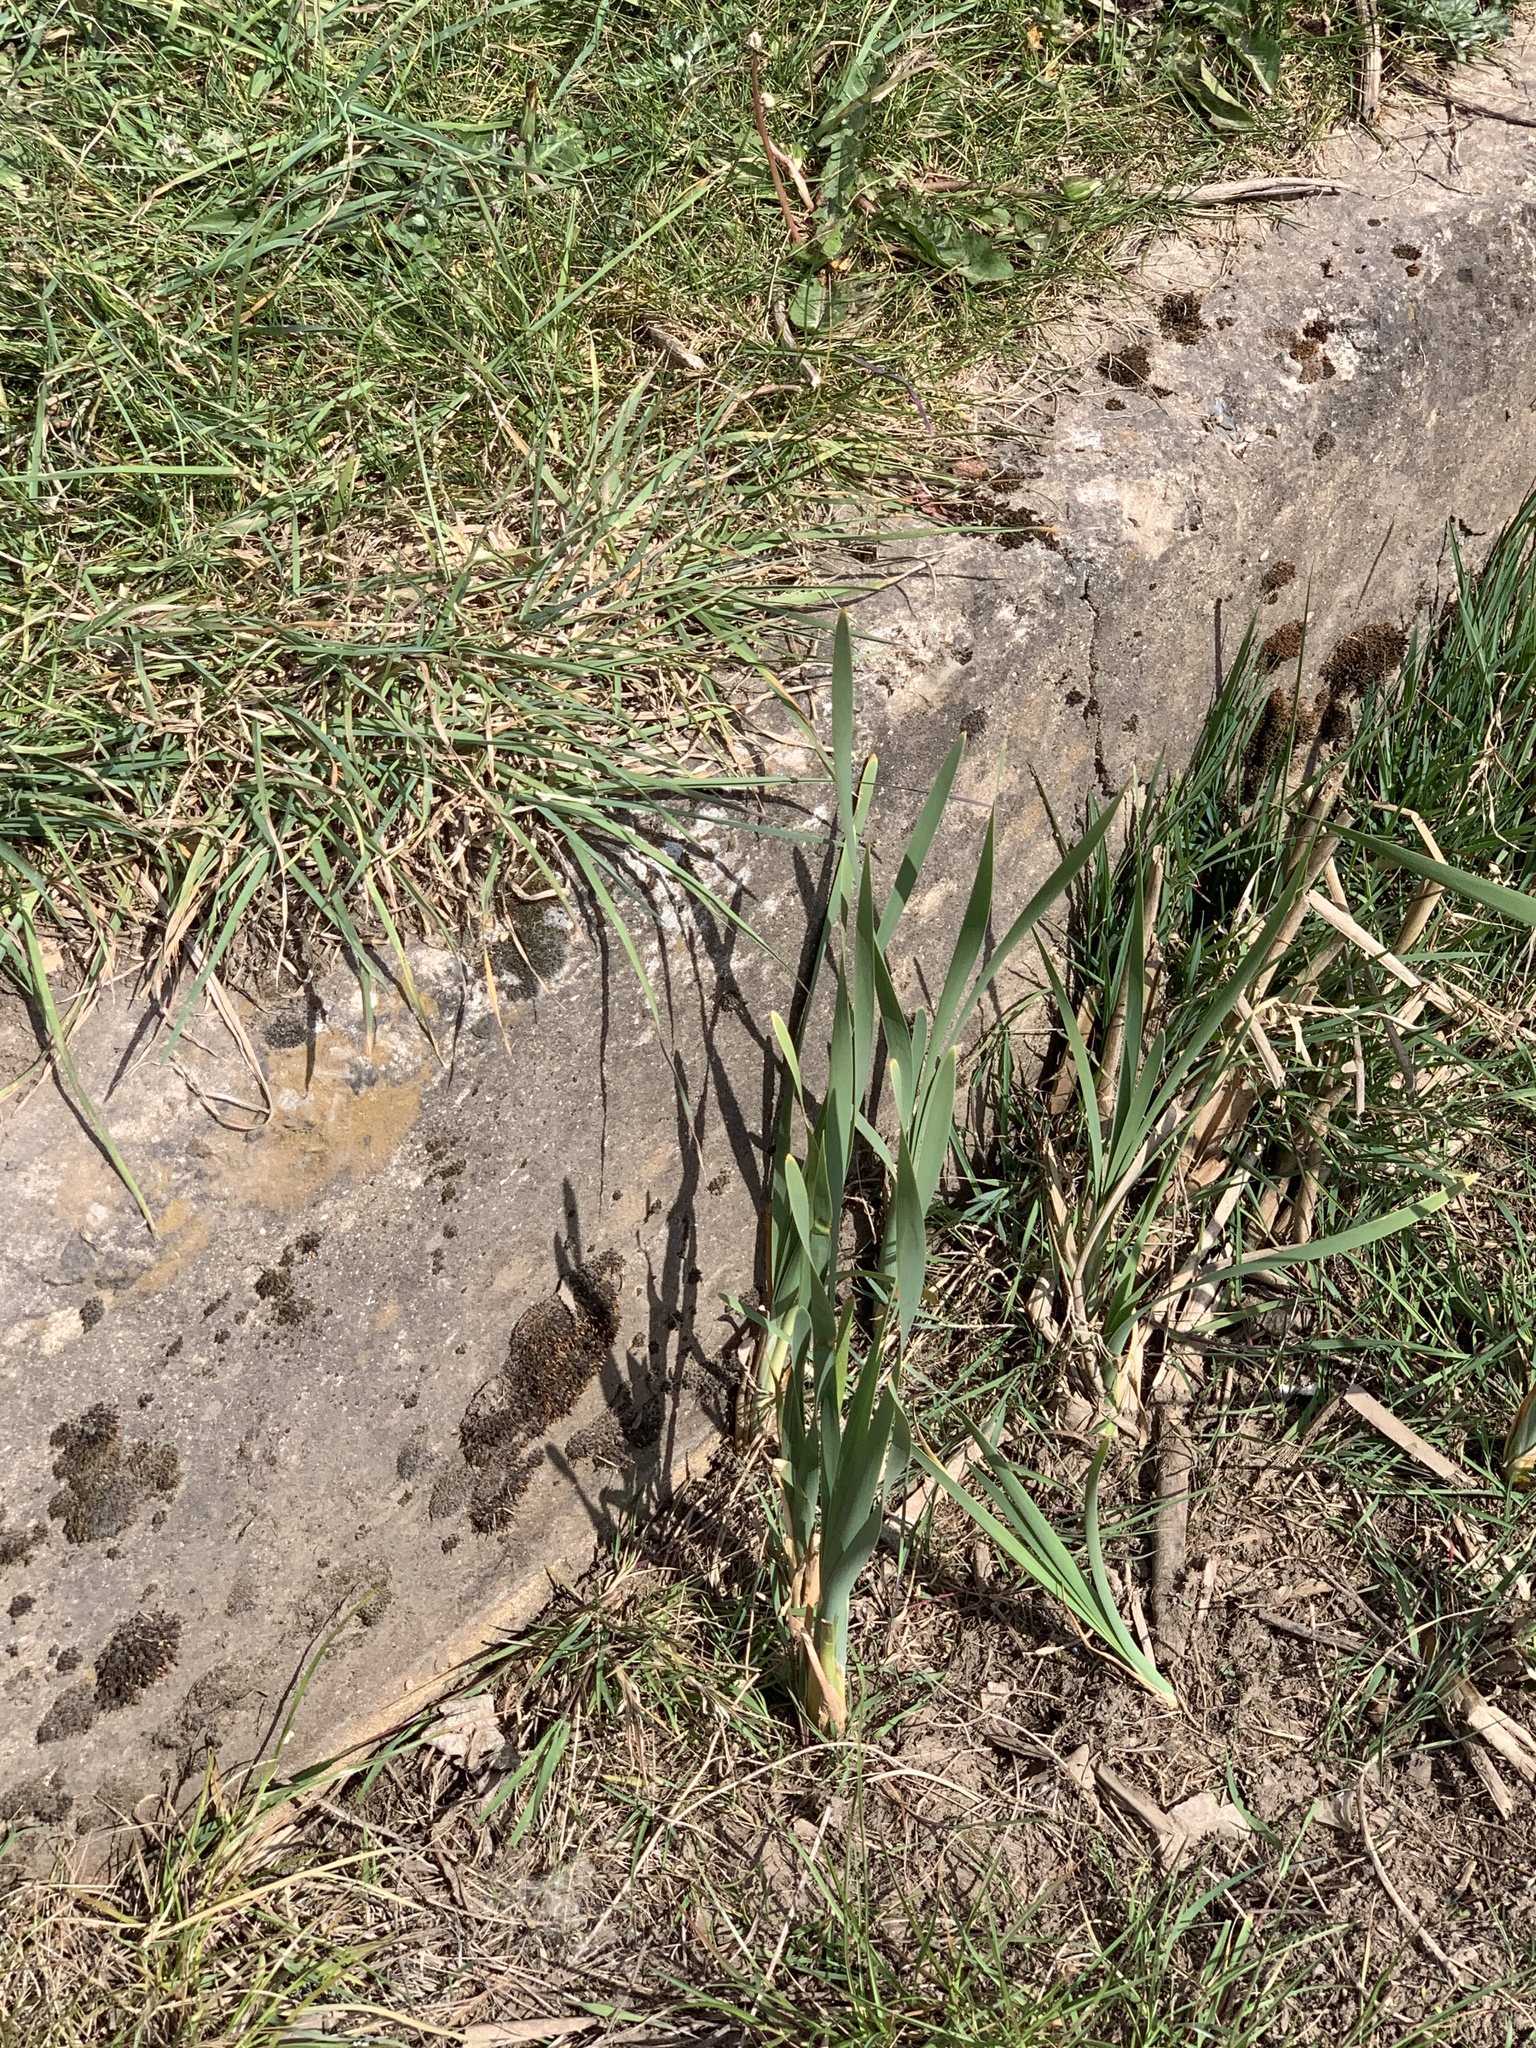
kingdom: Plantae
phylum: Tracheophyta
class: Liliopsida
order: Poales
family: Typhaceae
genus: Typha
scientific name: Typha latifolia
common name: Broadleaf cattail
